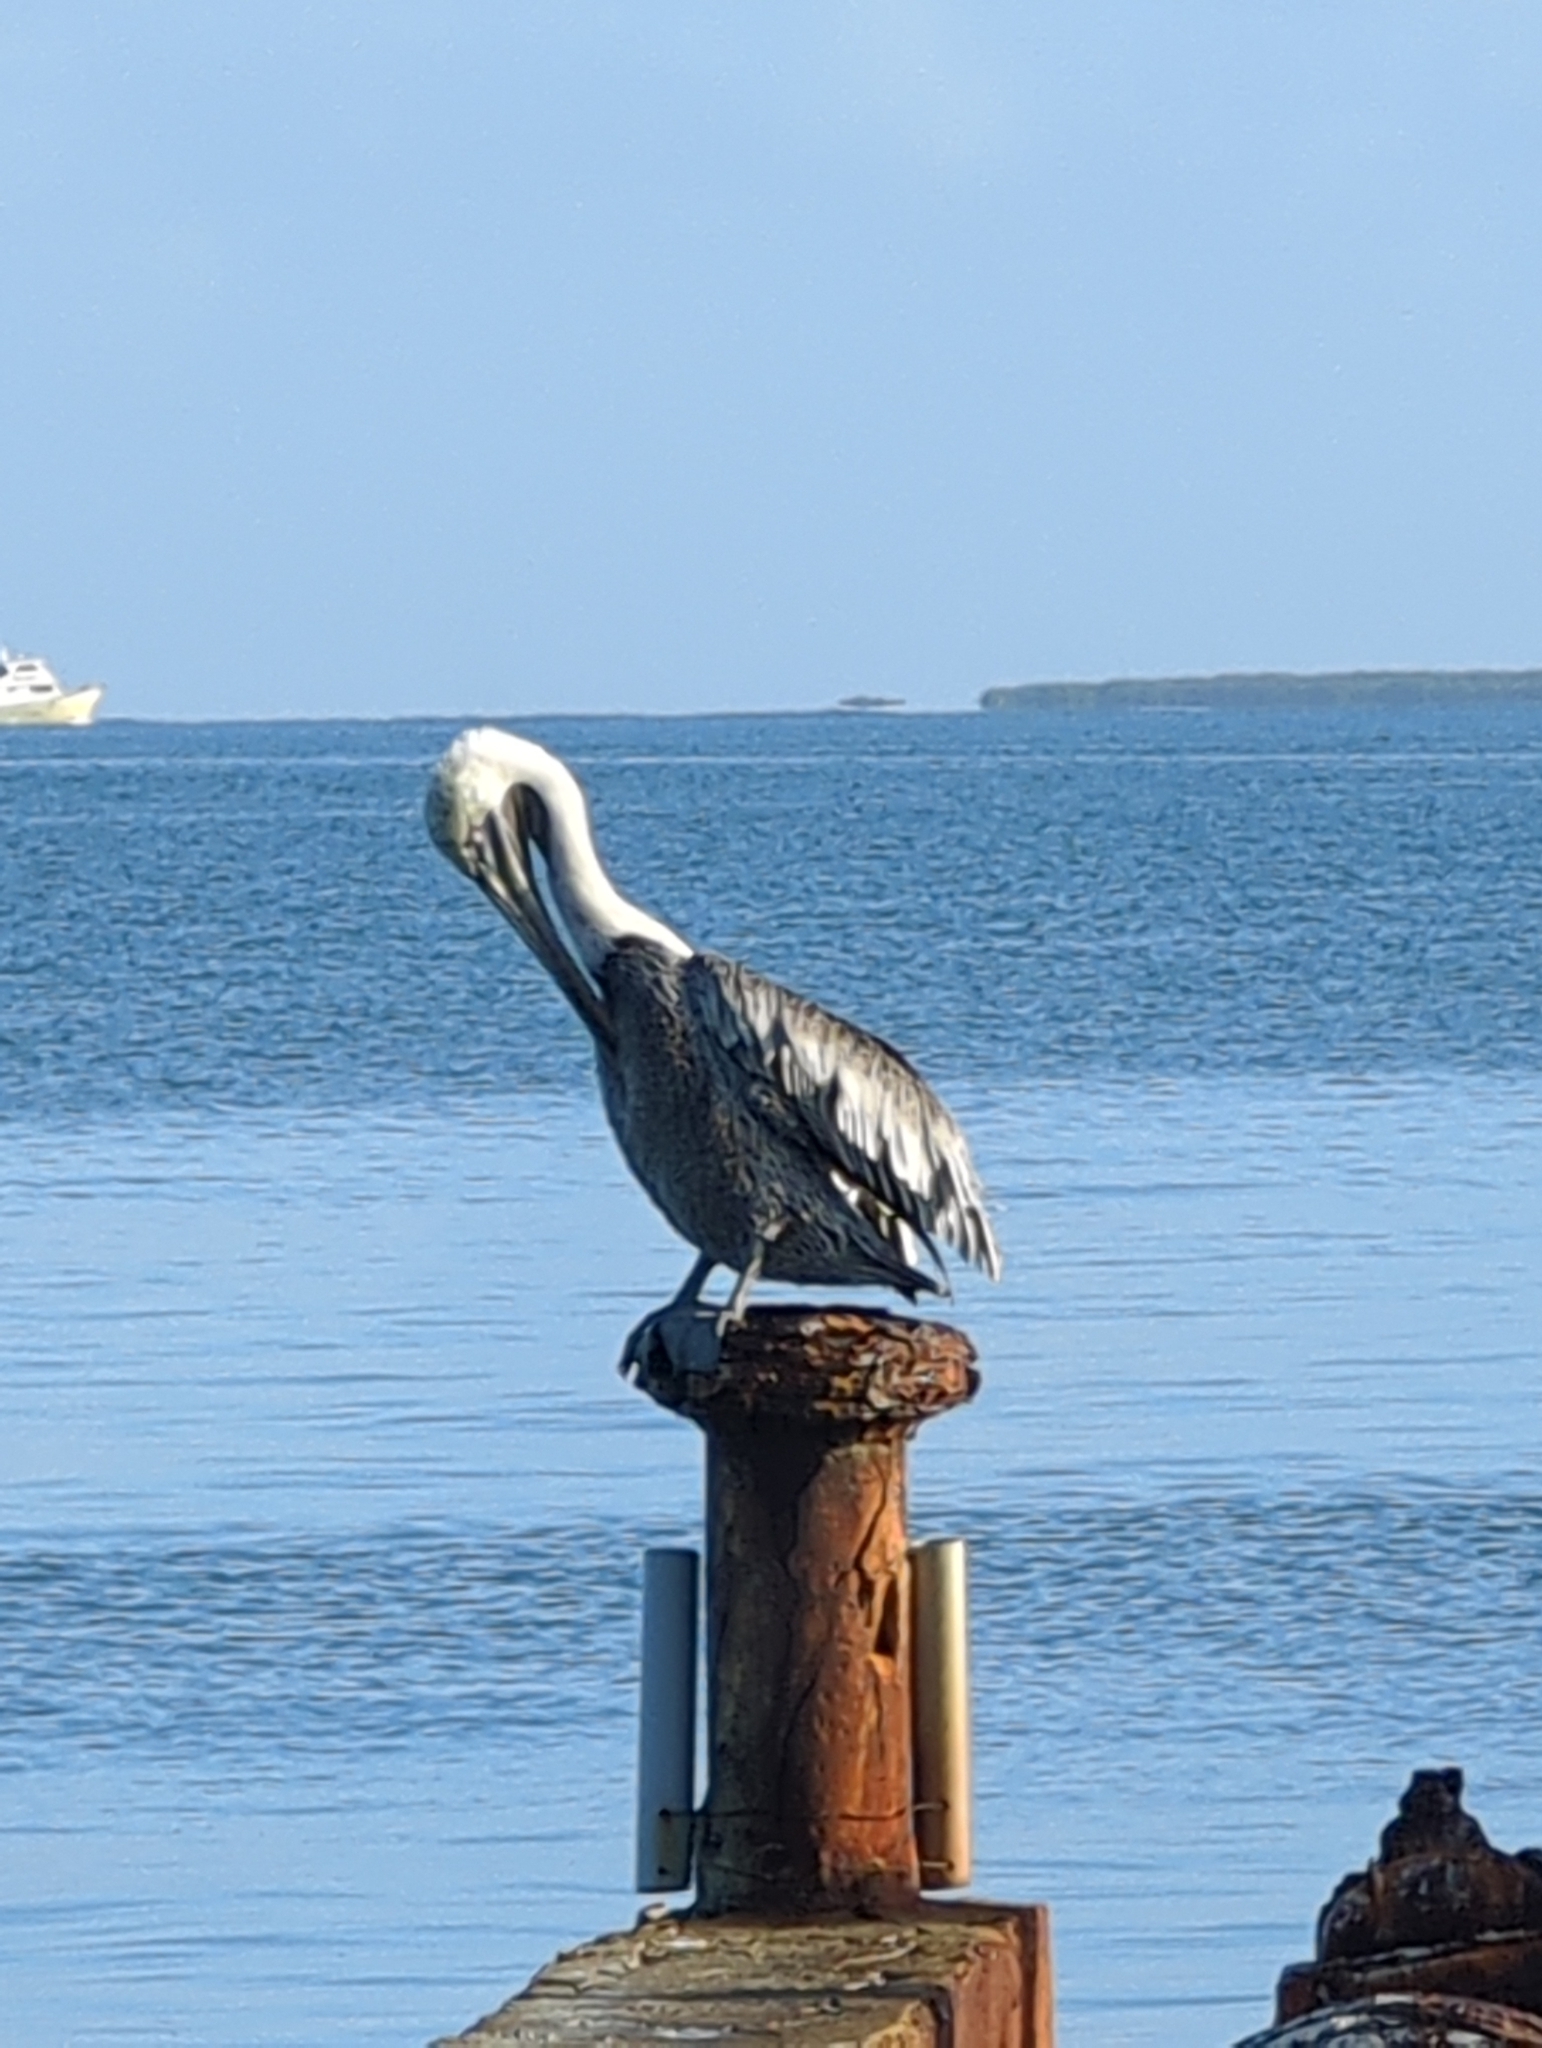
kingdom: Animalia
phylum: Chordata
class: Aves
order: Pelecaniformes
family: Pelecanidae
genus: Pelecanus
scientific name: Pelecanus occidentalis
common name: Brown pelican
